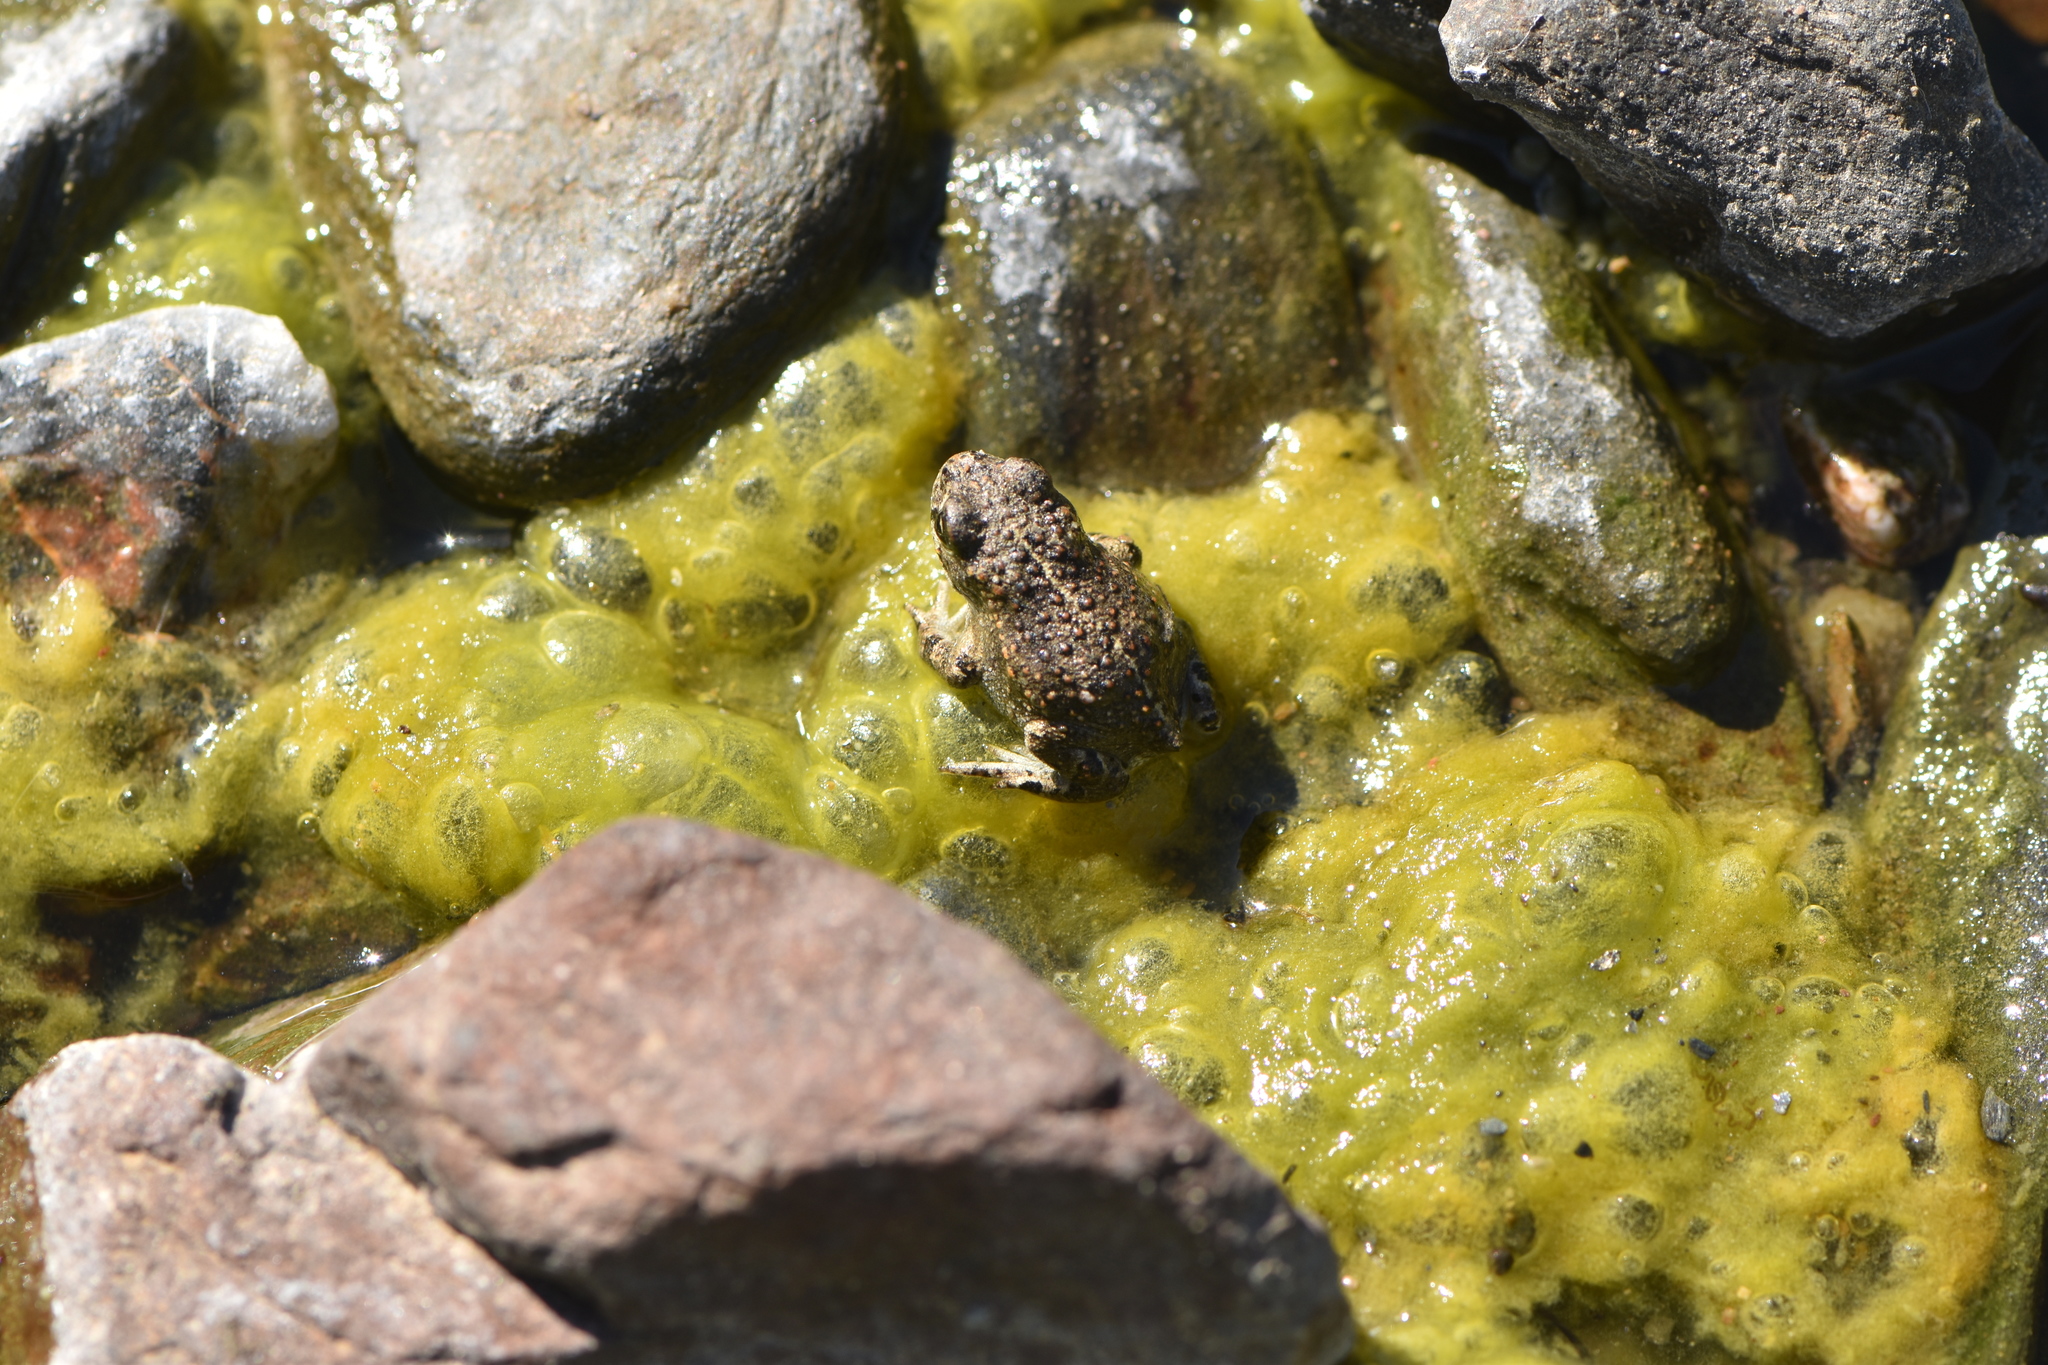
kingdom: Animalia
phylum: Chordata
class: Amphibia
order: Anura
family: Bufonidae
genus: Epidalea
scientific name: Epidalea calamita
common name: Natterjack toad
